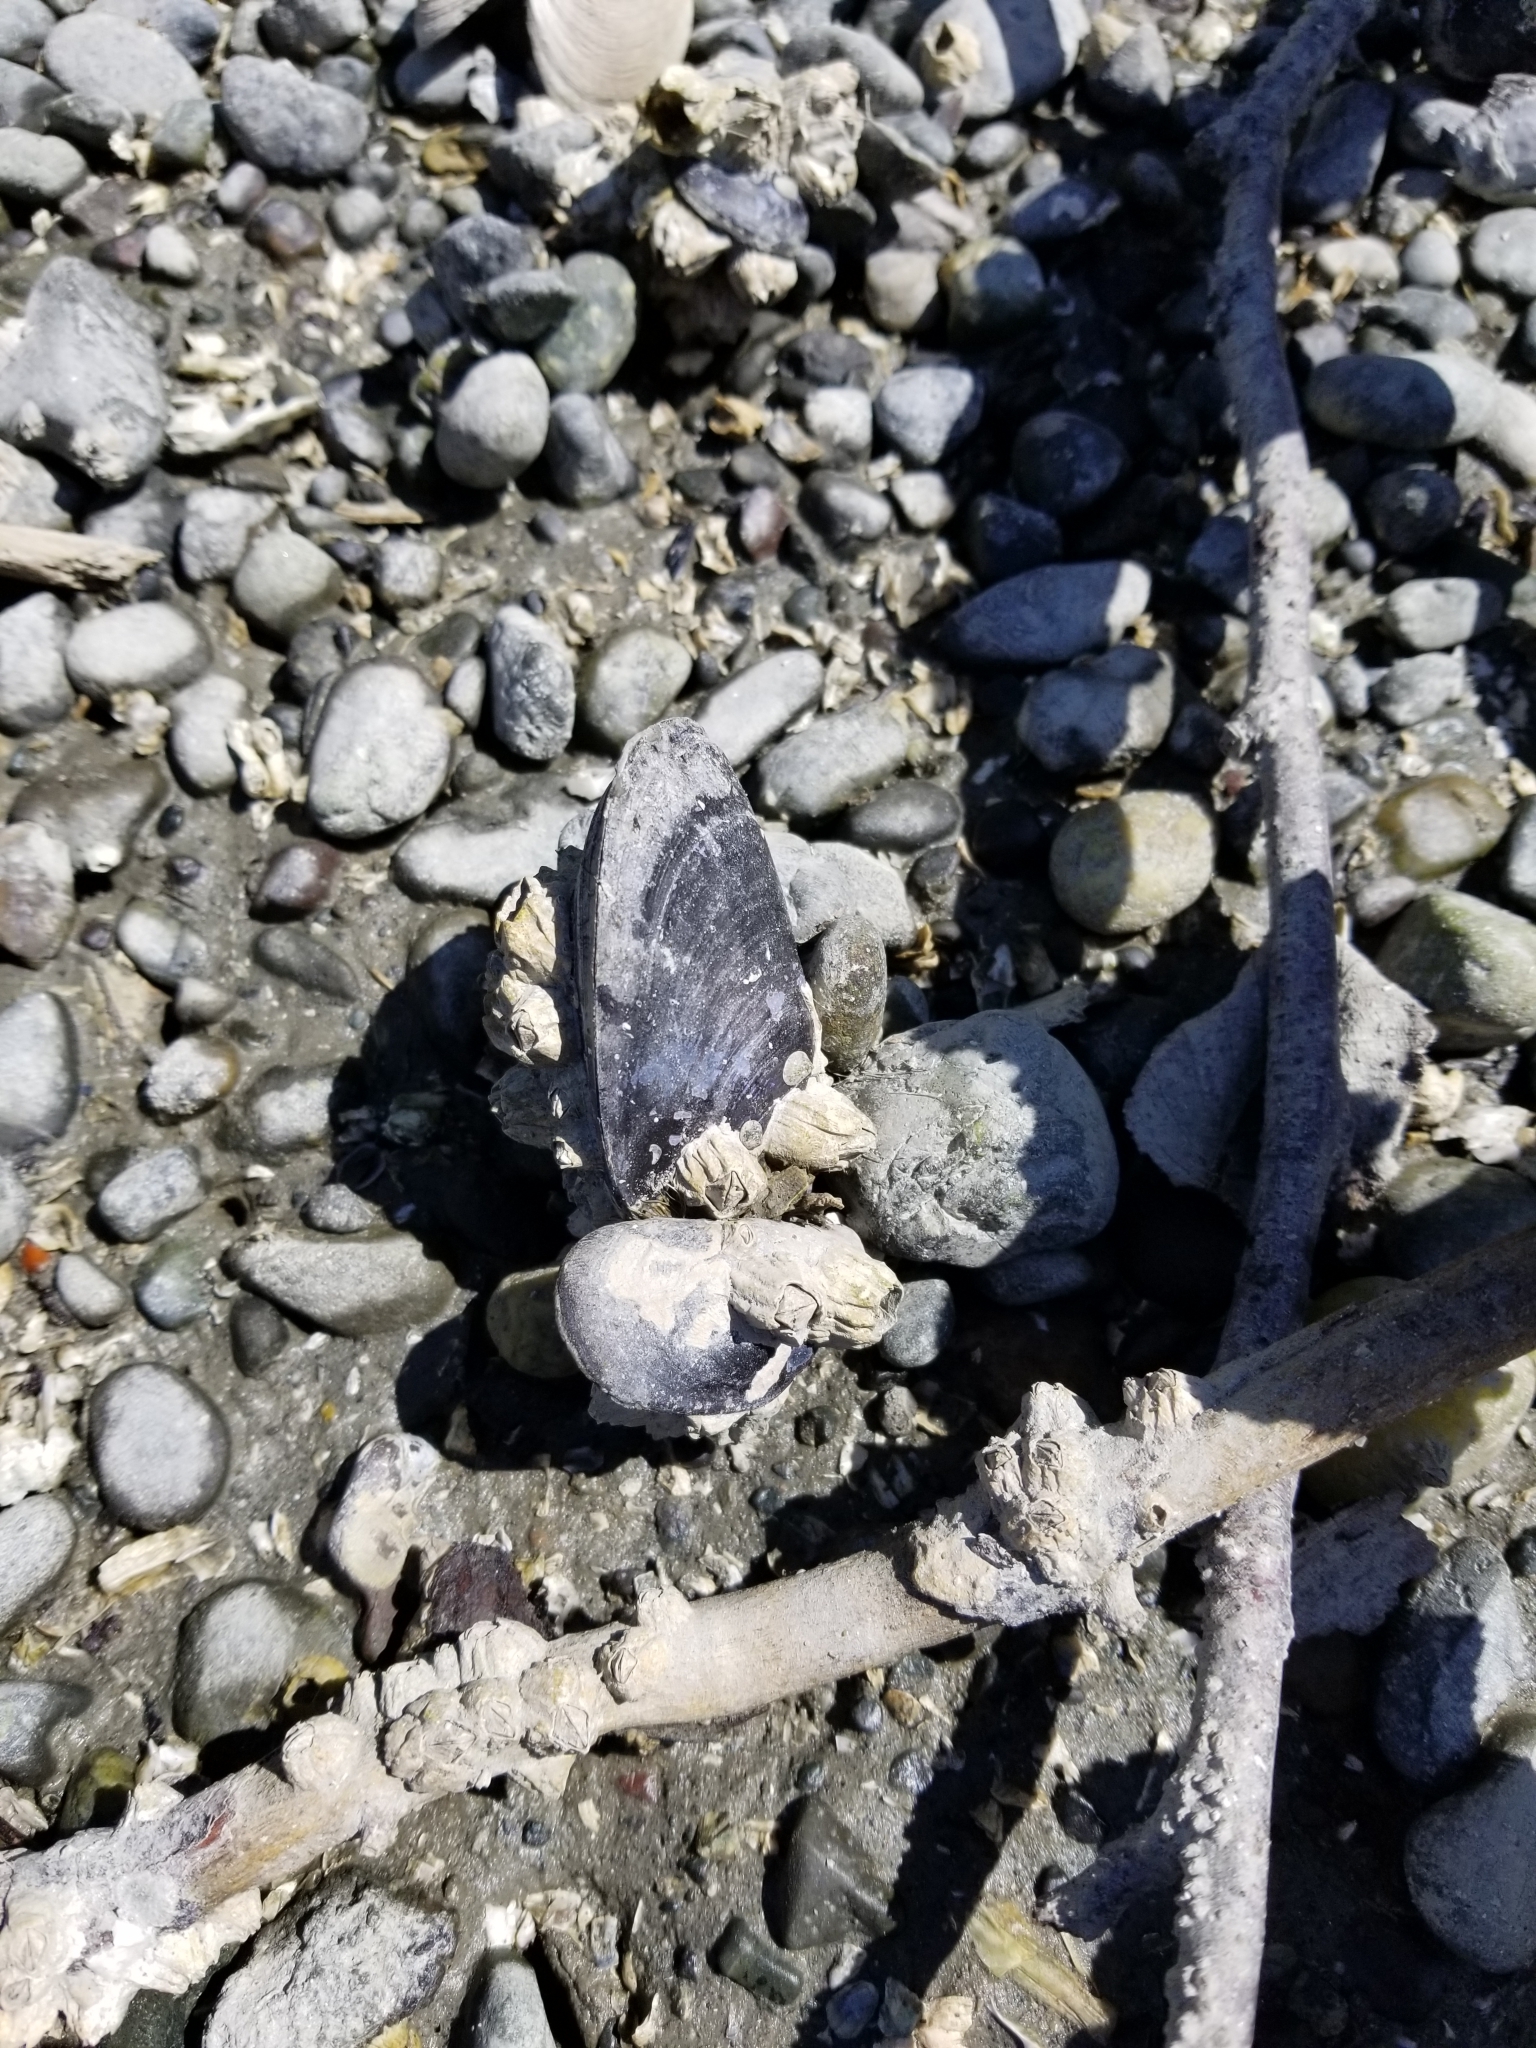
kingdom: Animalia
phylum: Mollusca
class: Bivalvia
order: Mytilida
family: Mytilidae
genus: Mytilus
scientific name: Mytilus
